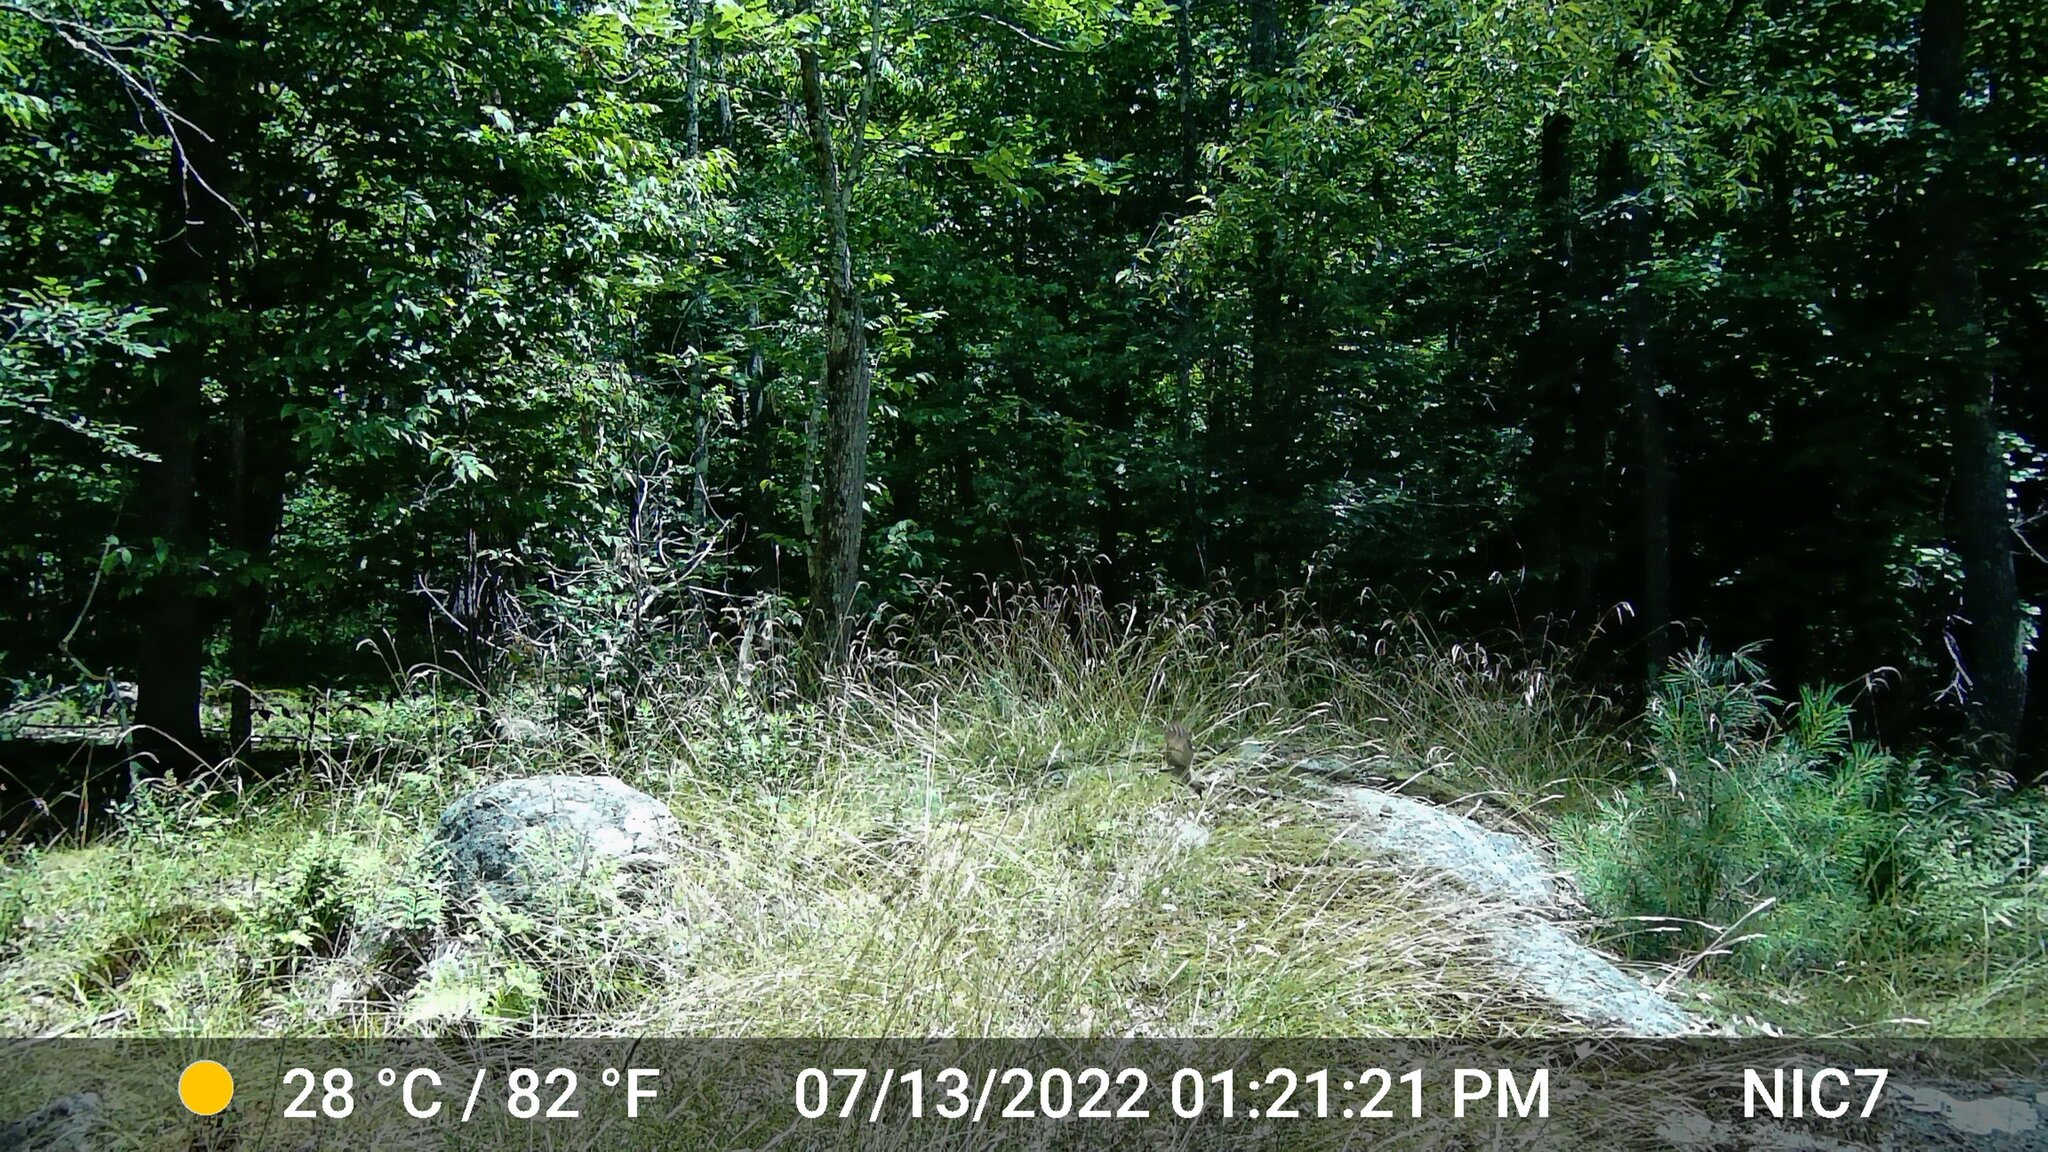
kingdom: Animalia
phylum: Chordata
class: Mammalia
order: Rodentia
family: Sciuridae
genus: Tamias
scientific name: Tamias striatus
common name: Eastern chipmunk
